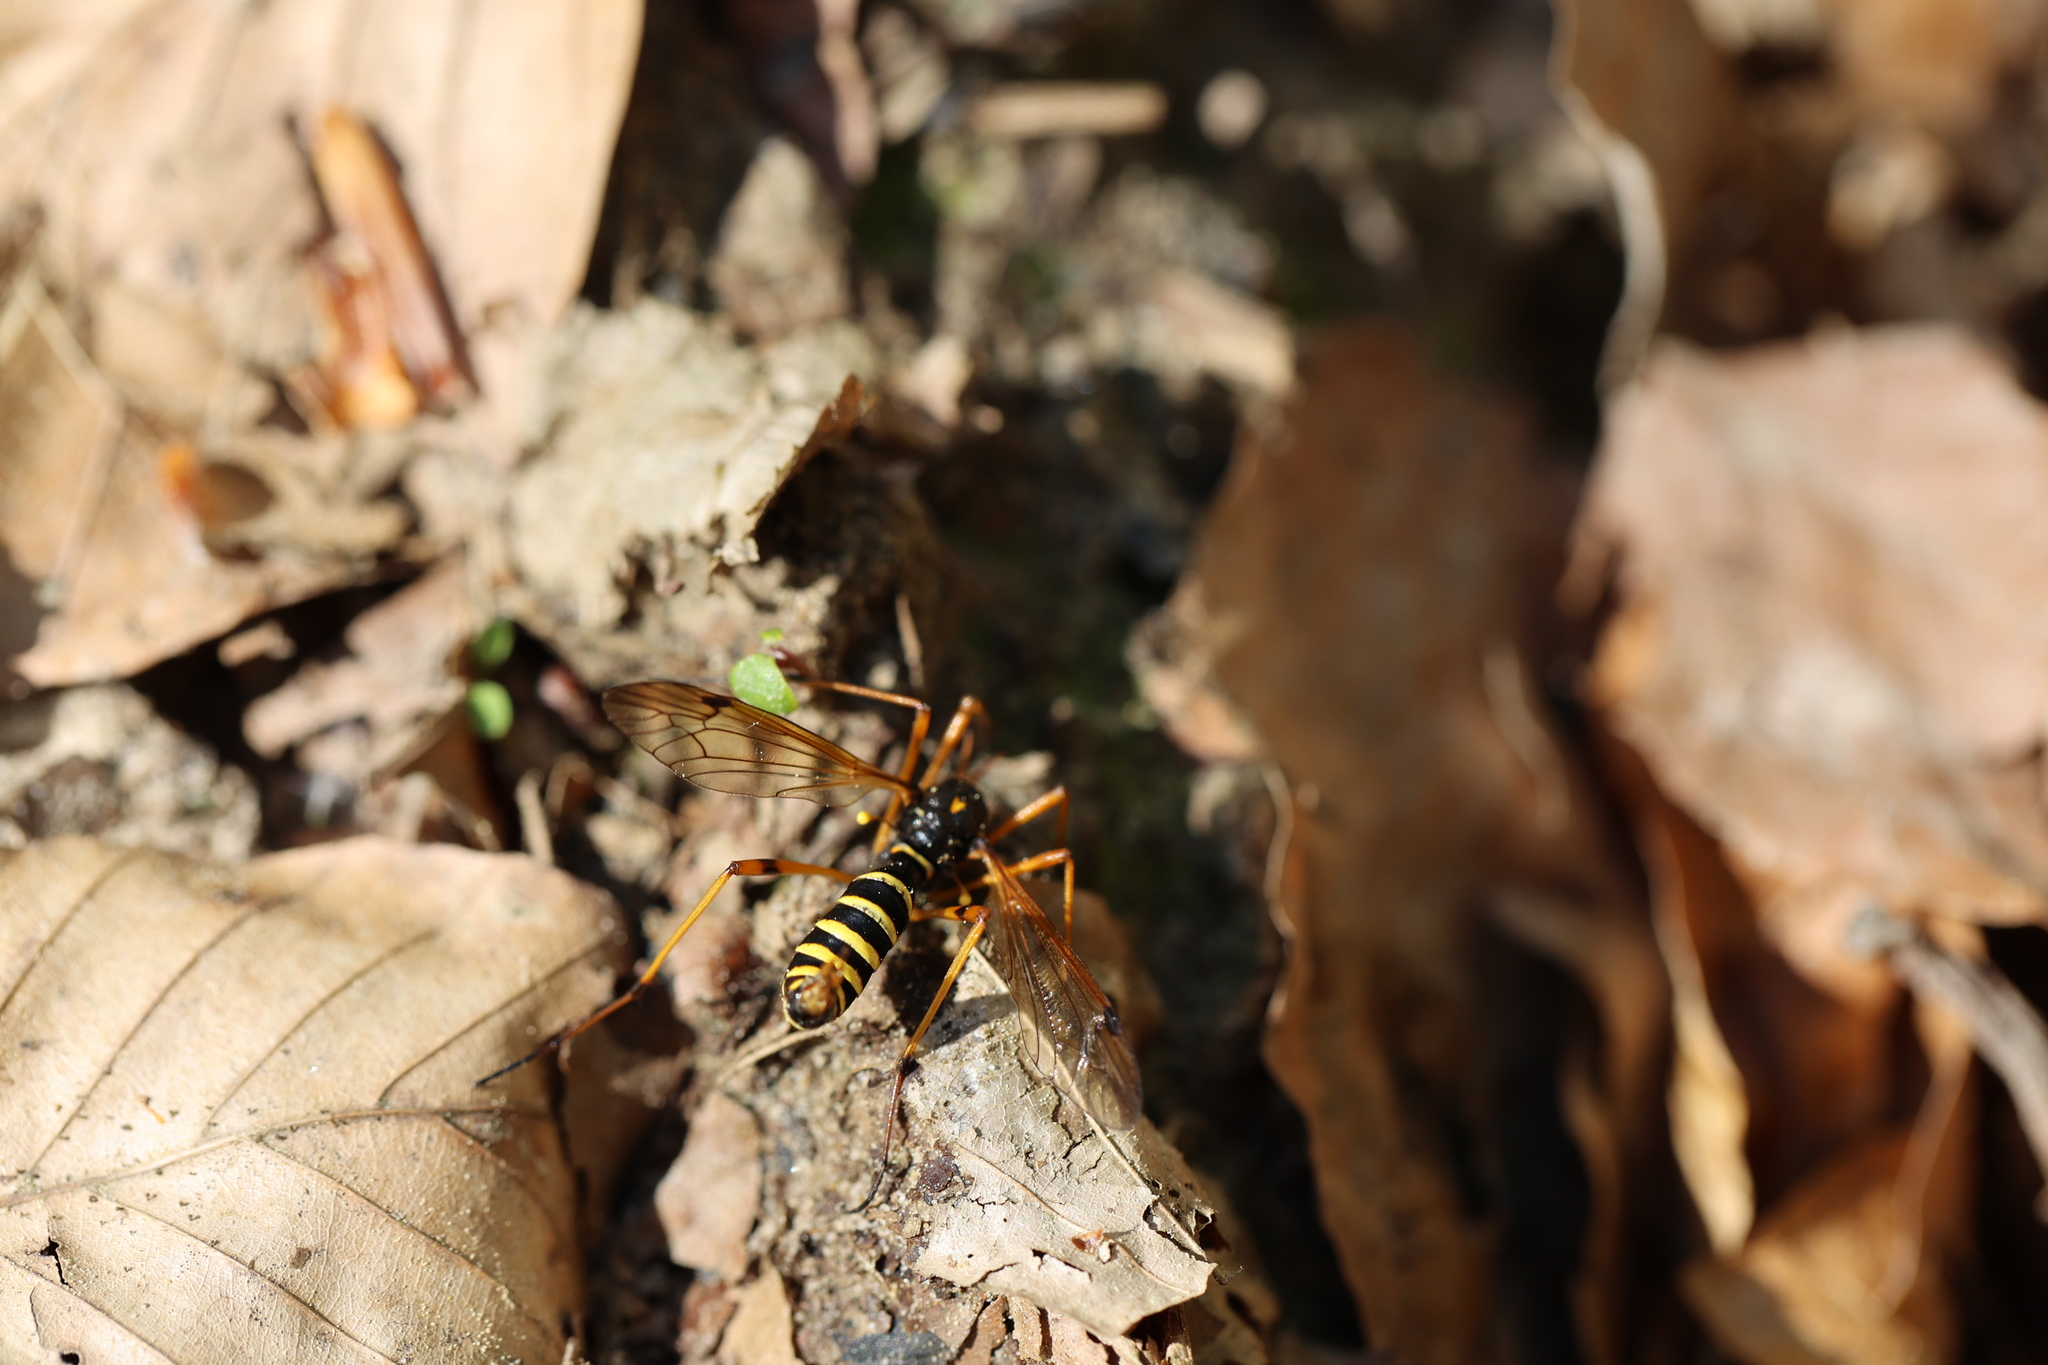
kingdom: Animalia
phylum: Arthropoda
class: Insecta
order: Diptera
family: Tipulidae
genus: Ctenophora
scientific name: Ctenophora flaveolata
